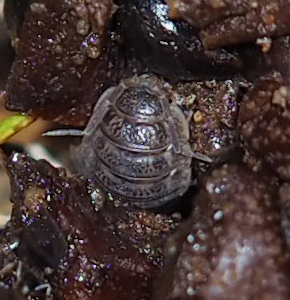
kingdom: Animalia
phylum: Arthropoda
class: Malacostraca
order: Isopoda
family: Trachelipodidae
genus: Trachelipus
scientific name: Trachelipus rathkii
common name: Isopod
